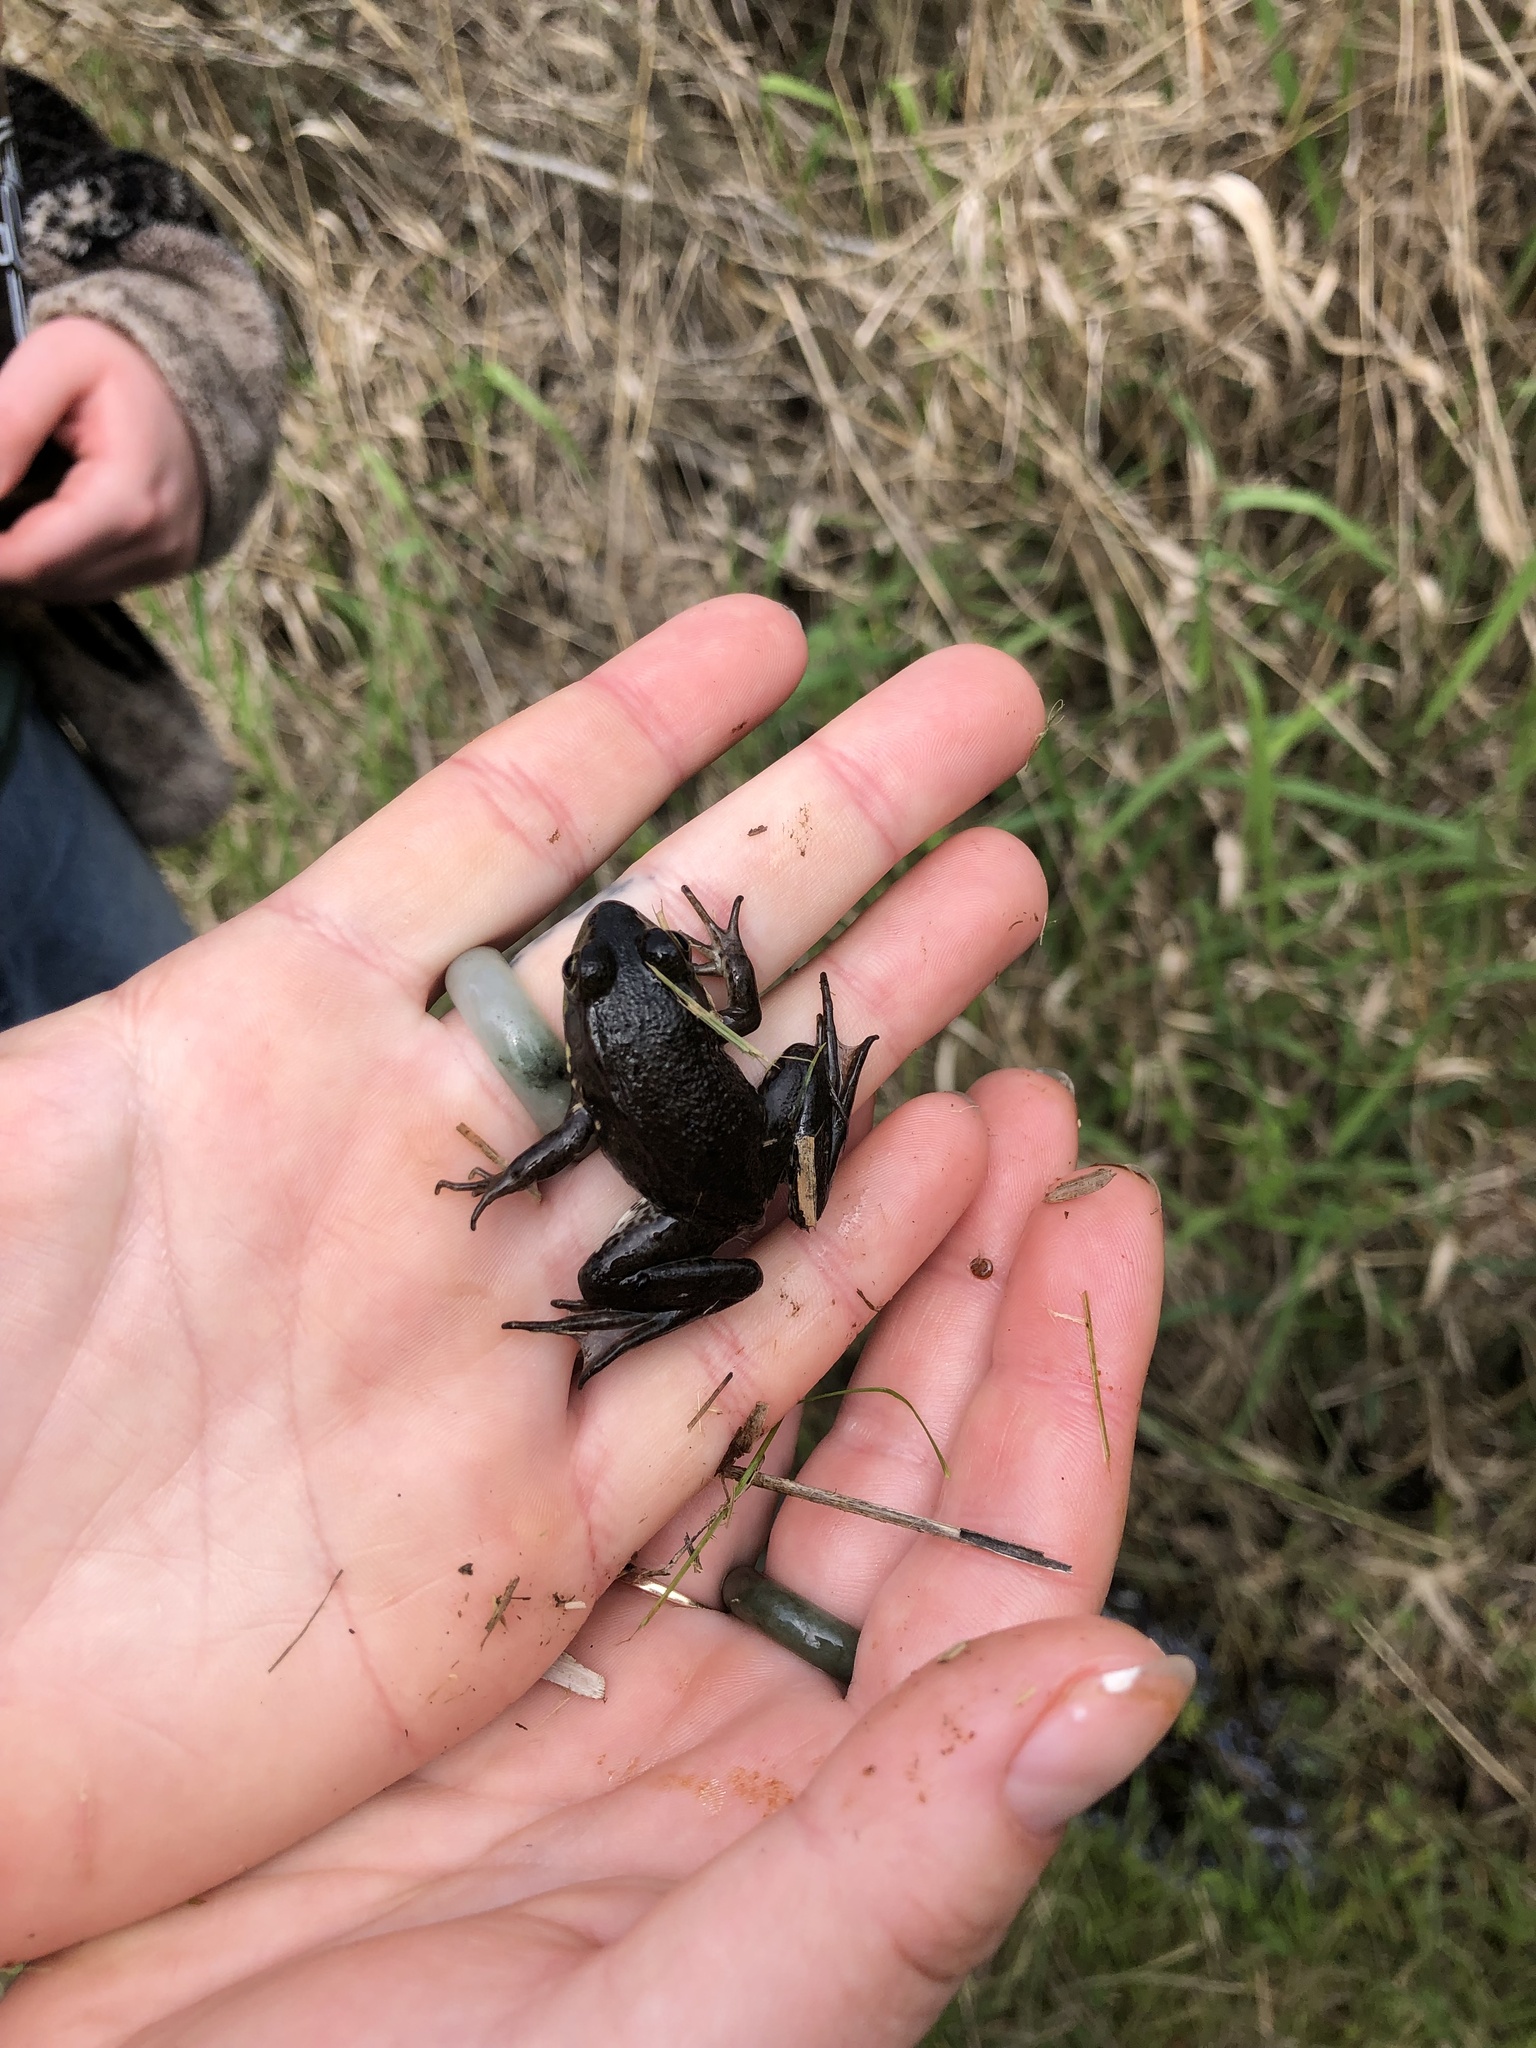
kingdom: Animalia
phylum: Chordata
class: Amphibia
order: Anura
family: Ranidae
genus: Lithobates
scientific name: Lithobates clamitans
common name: Green frog
